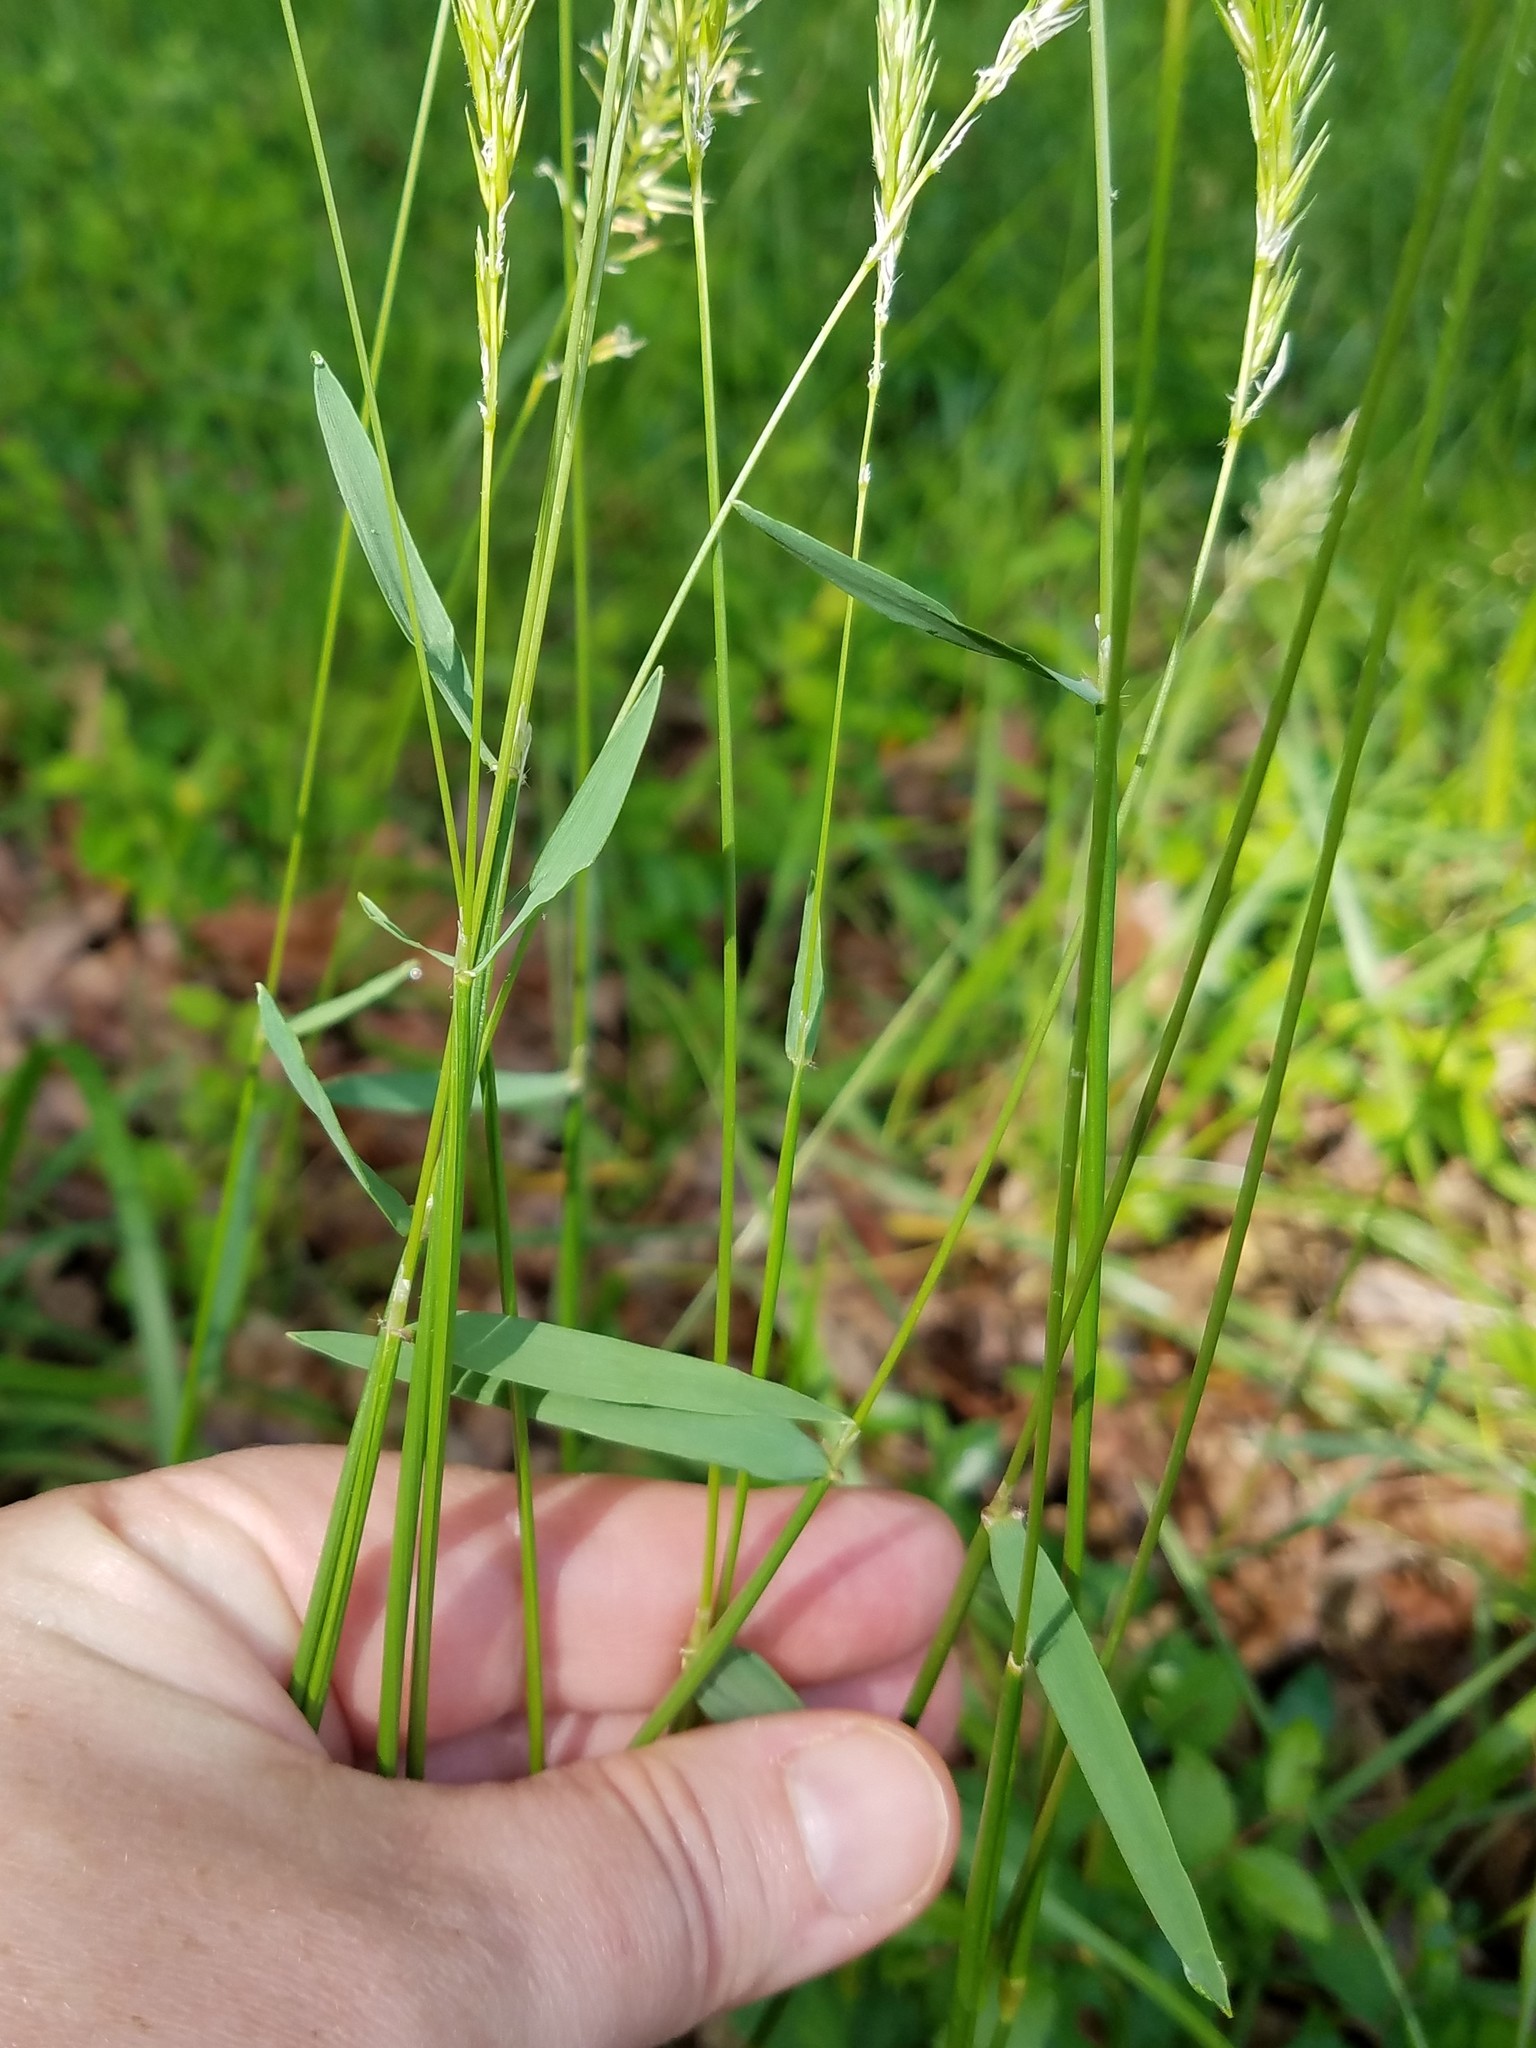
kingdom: Plantae
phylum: Tracheophyta
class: Liliopsida
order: Poales
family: Poaceae
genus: Anthoxanthum
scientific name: Anthoxanthum odoratum
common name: Sweet vernalgrass
